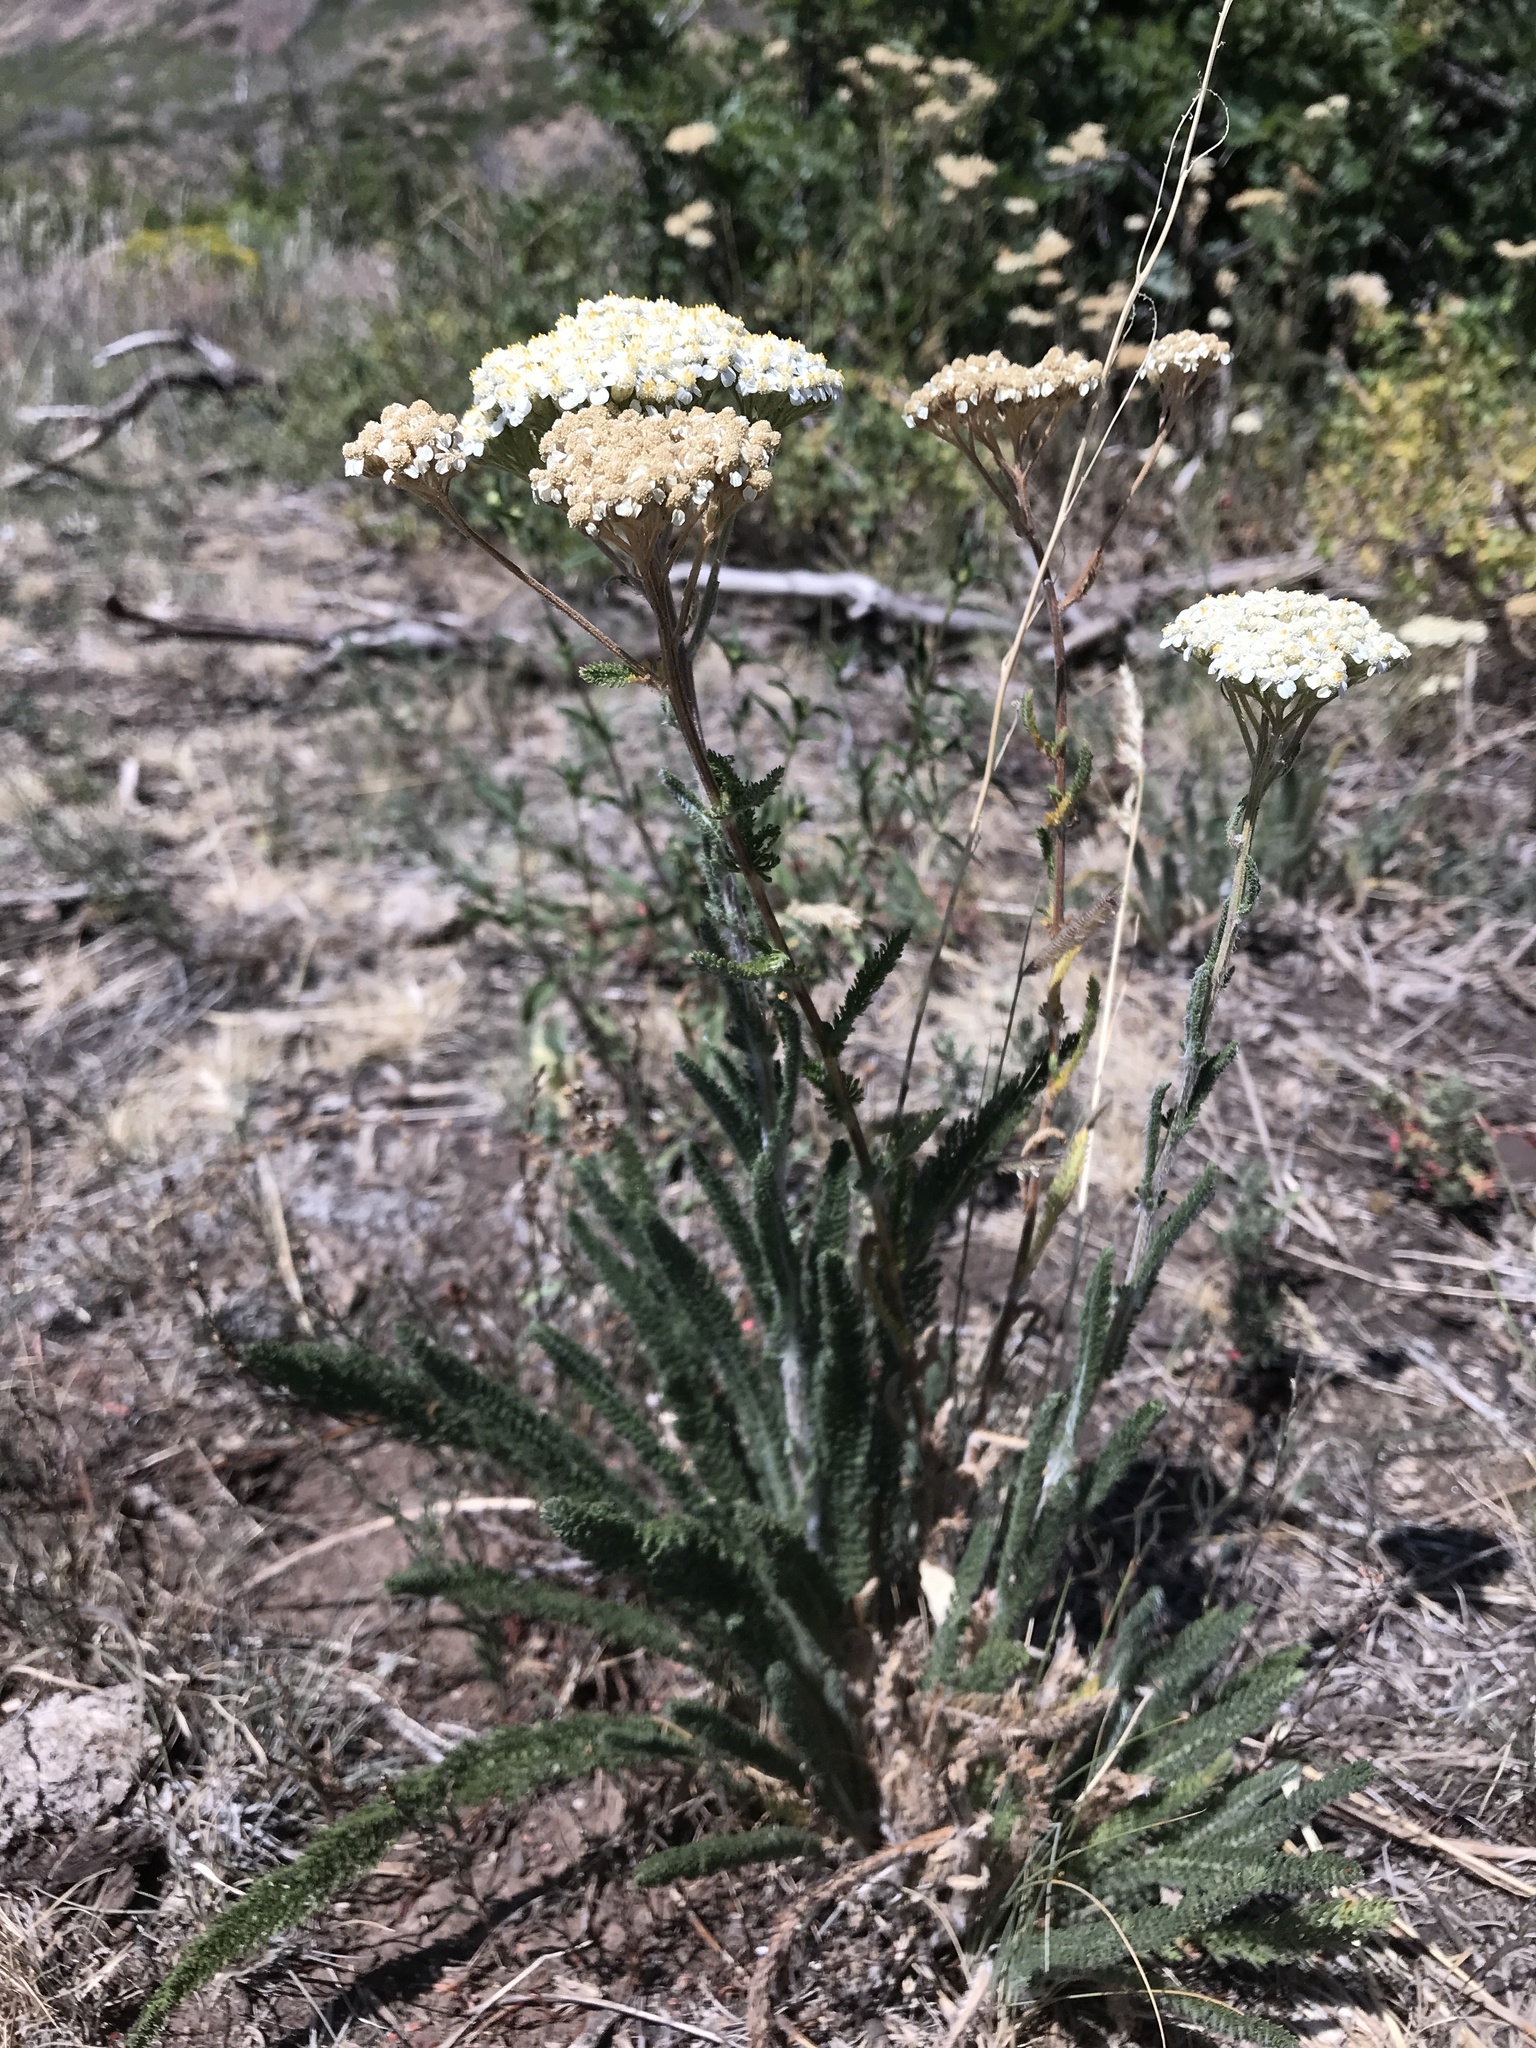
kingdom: Plantae
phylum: Tracheophyta
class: Magnoliopsida
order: Asterales
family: Asteraceae
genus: Achillea
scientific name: Achillea millefolium
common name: Yarrow
